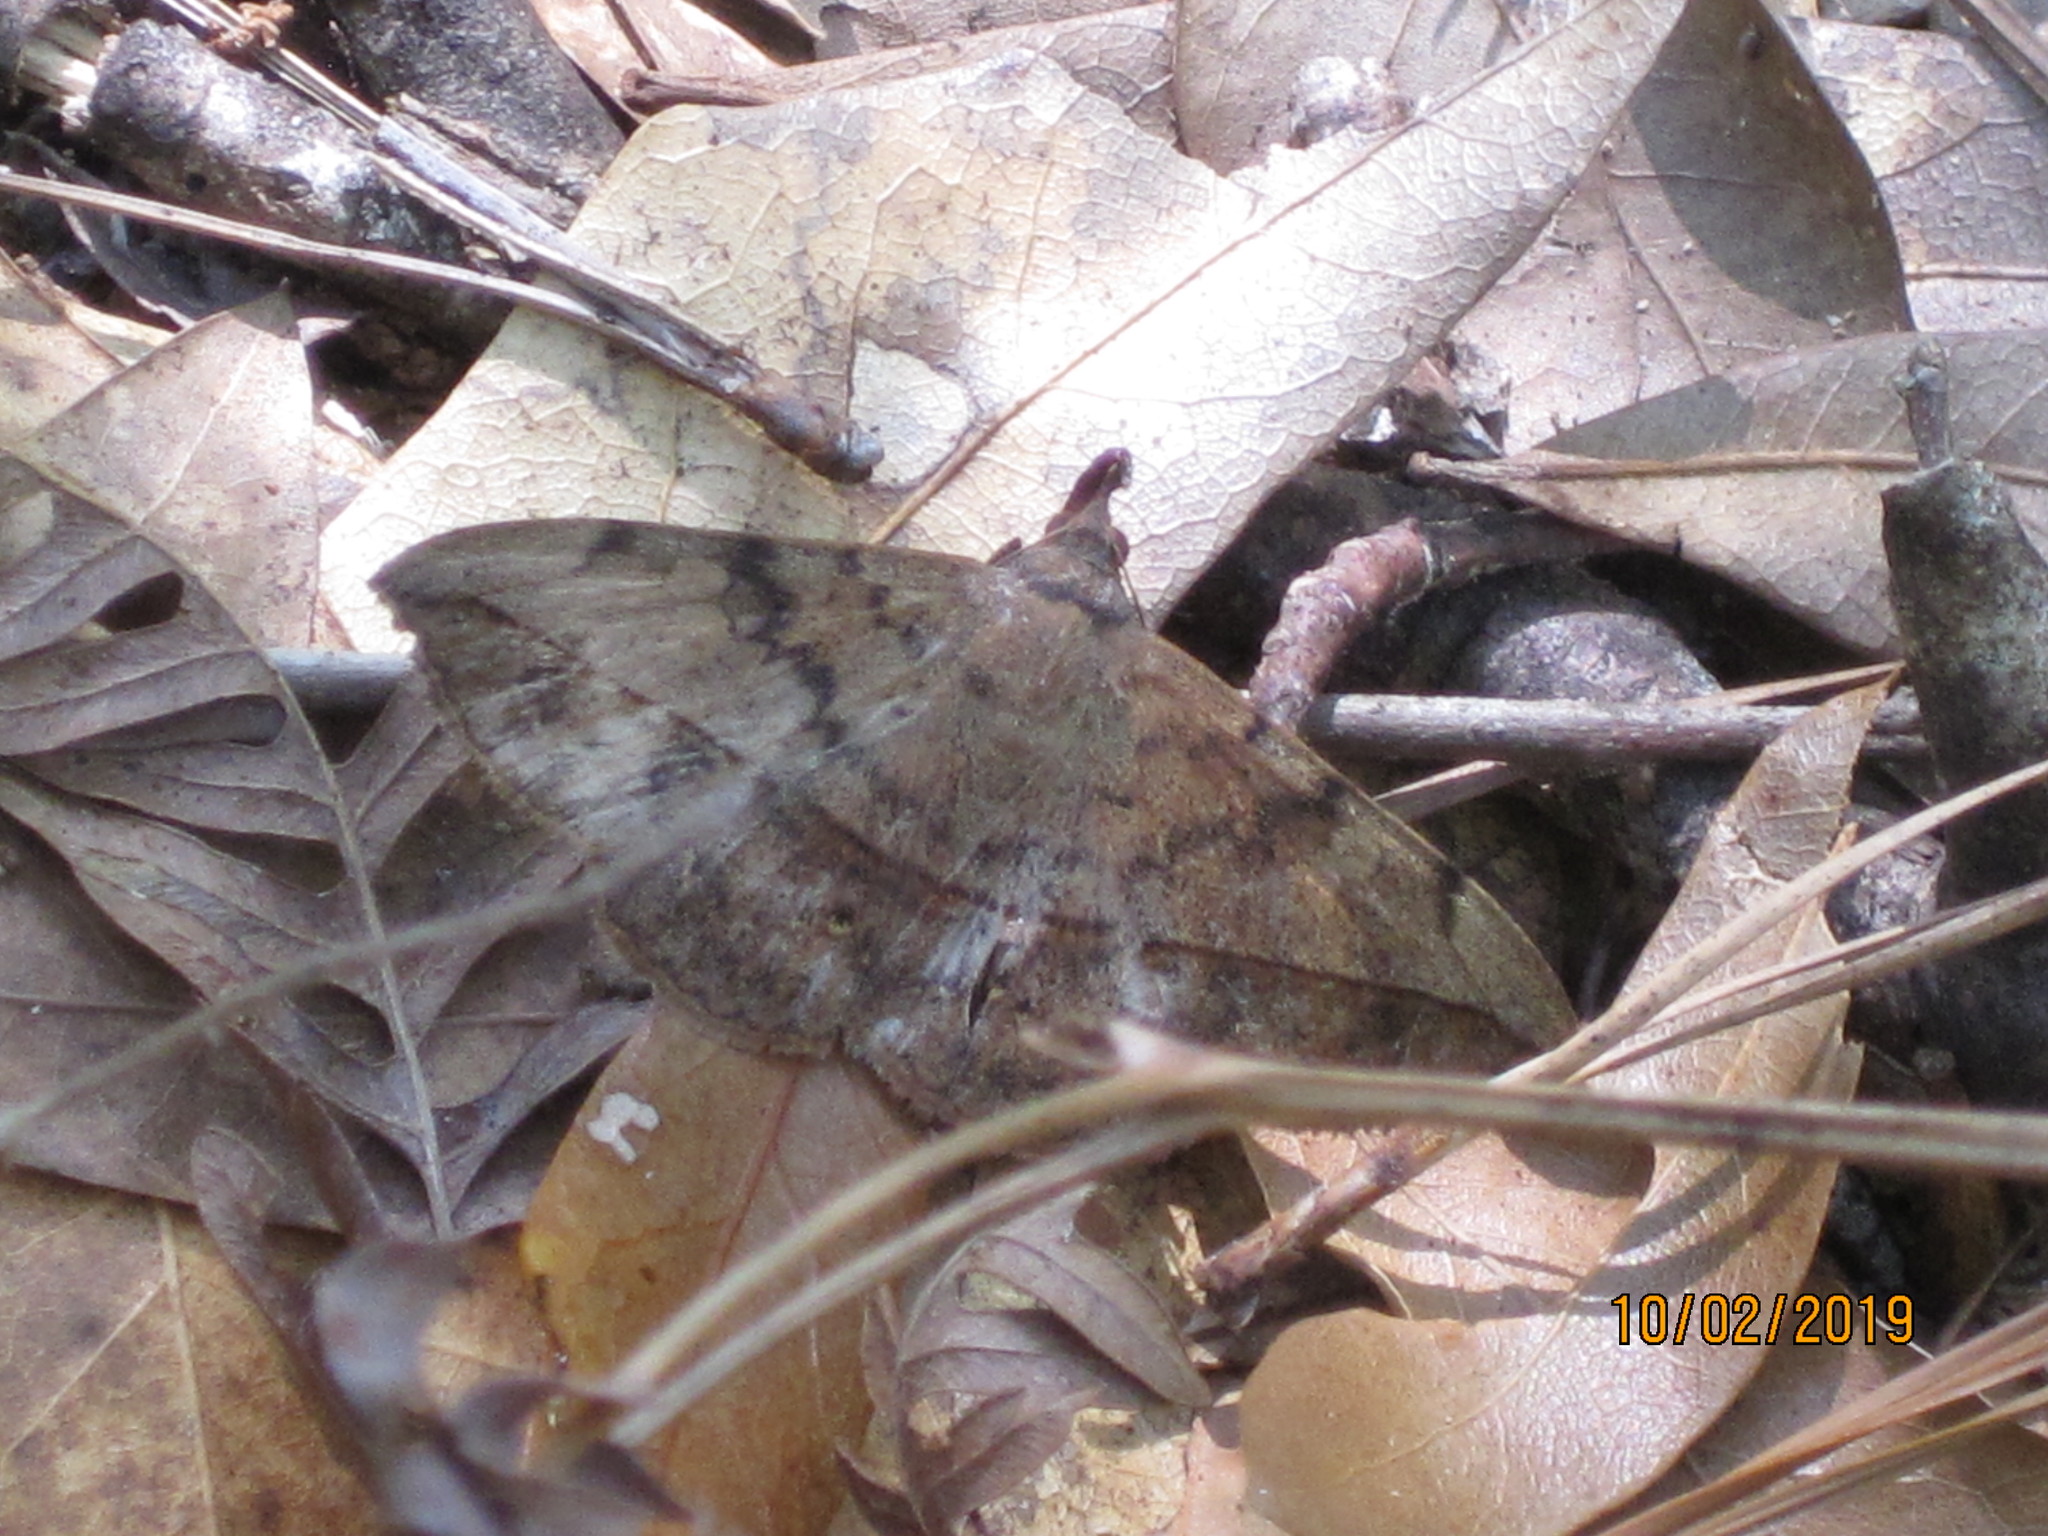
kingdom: Animalia
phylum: Arthropoda
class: Insecta
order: Lepidoptera
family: Erebidae
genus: Anticarsia
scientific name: Anticarsia gemmatalis
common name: Cutworm moth
